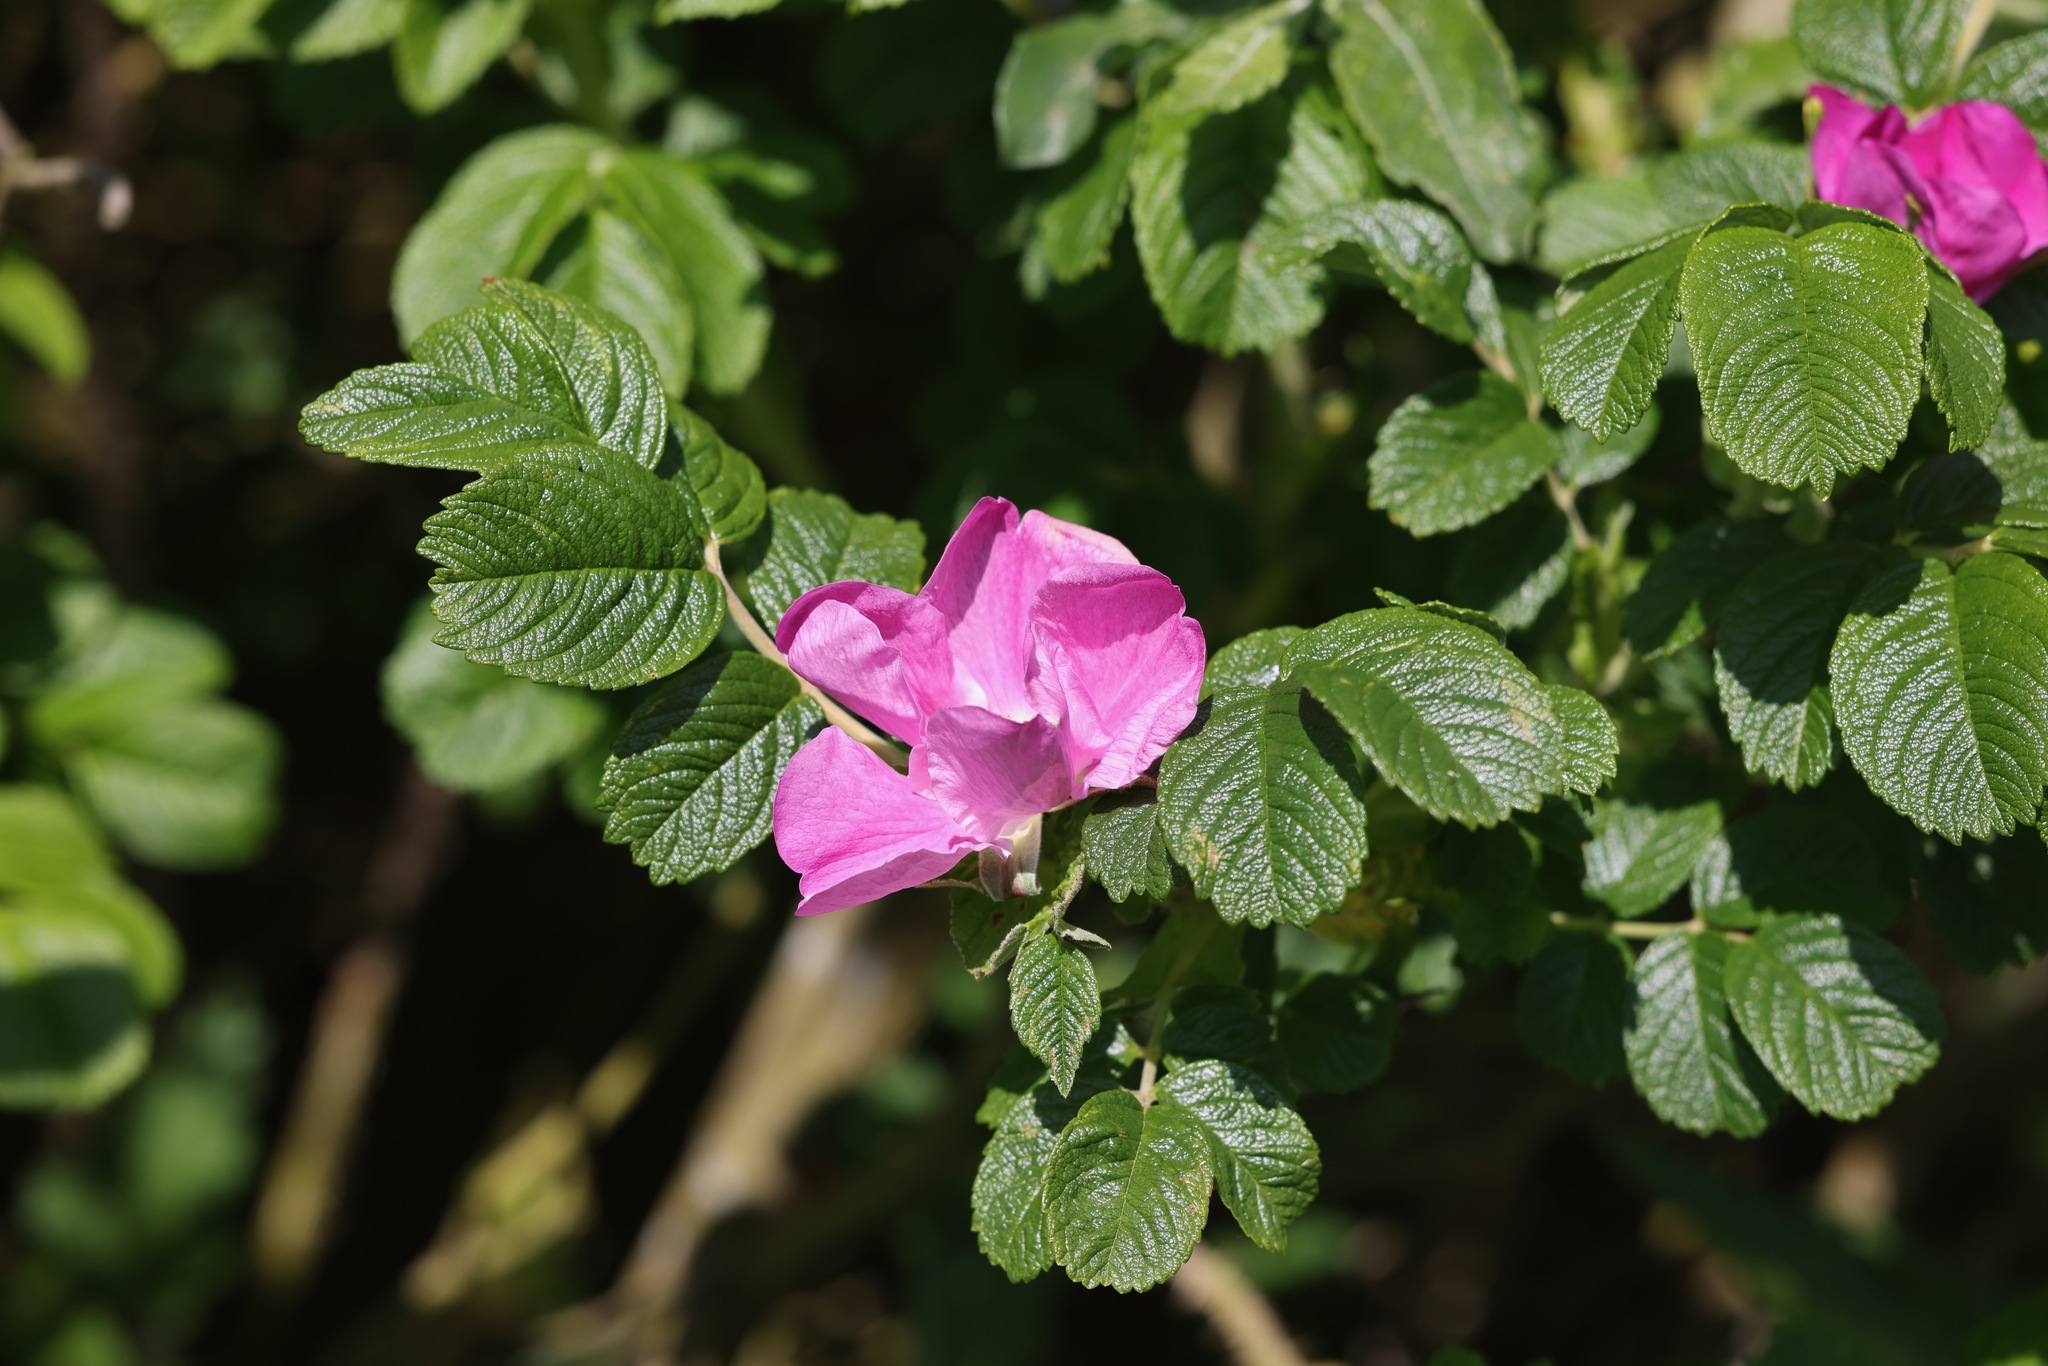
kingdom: Plantae
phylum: Tracheophyta
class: Magnoliopsida
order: Rosales
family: Rosaceae
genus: Rosa
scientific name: Rosa rugosa
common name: Japanese rose
